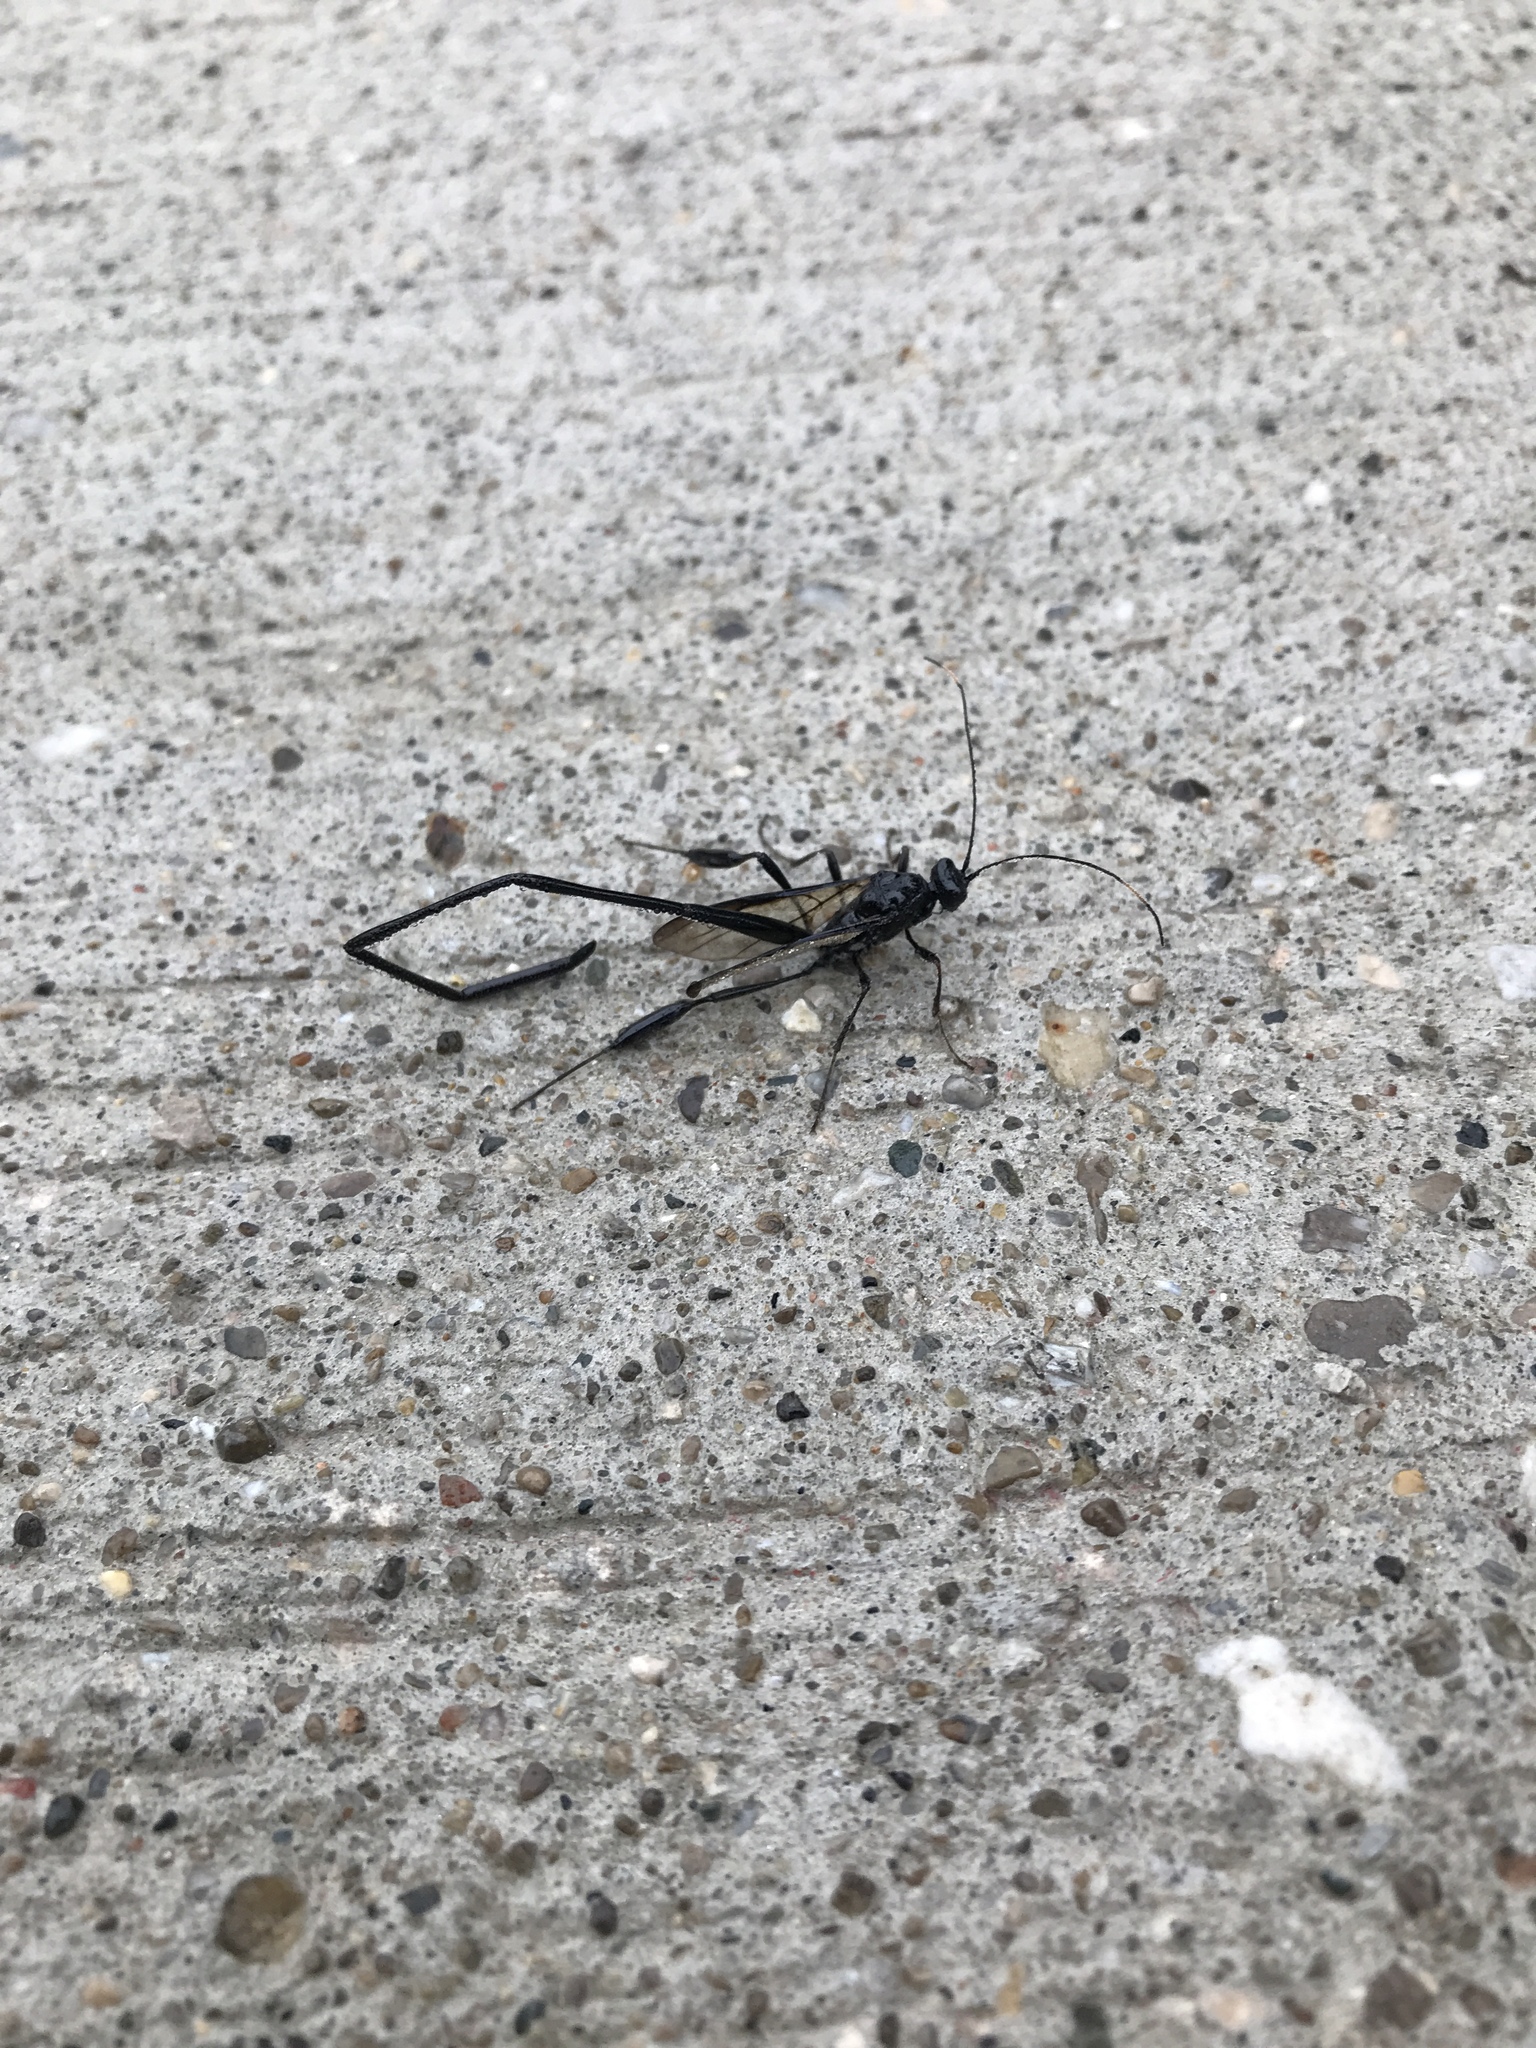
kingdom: Animalia
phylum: Arthropoda
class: Insecta
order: Hymenoptera
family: Pelecinidae
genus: Pelecinus
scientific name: Pelecinus polyturator
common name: American pelecinid wasp
